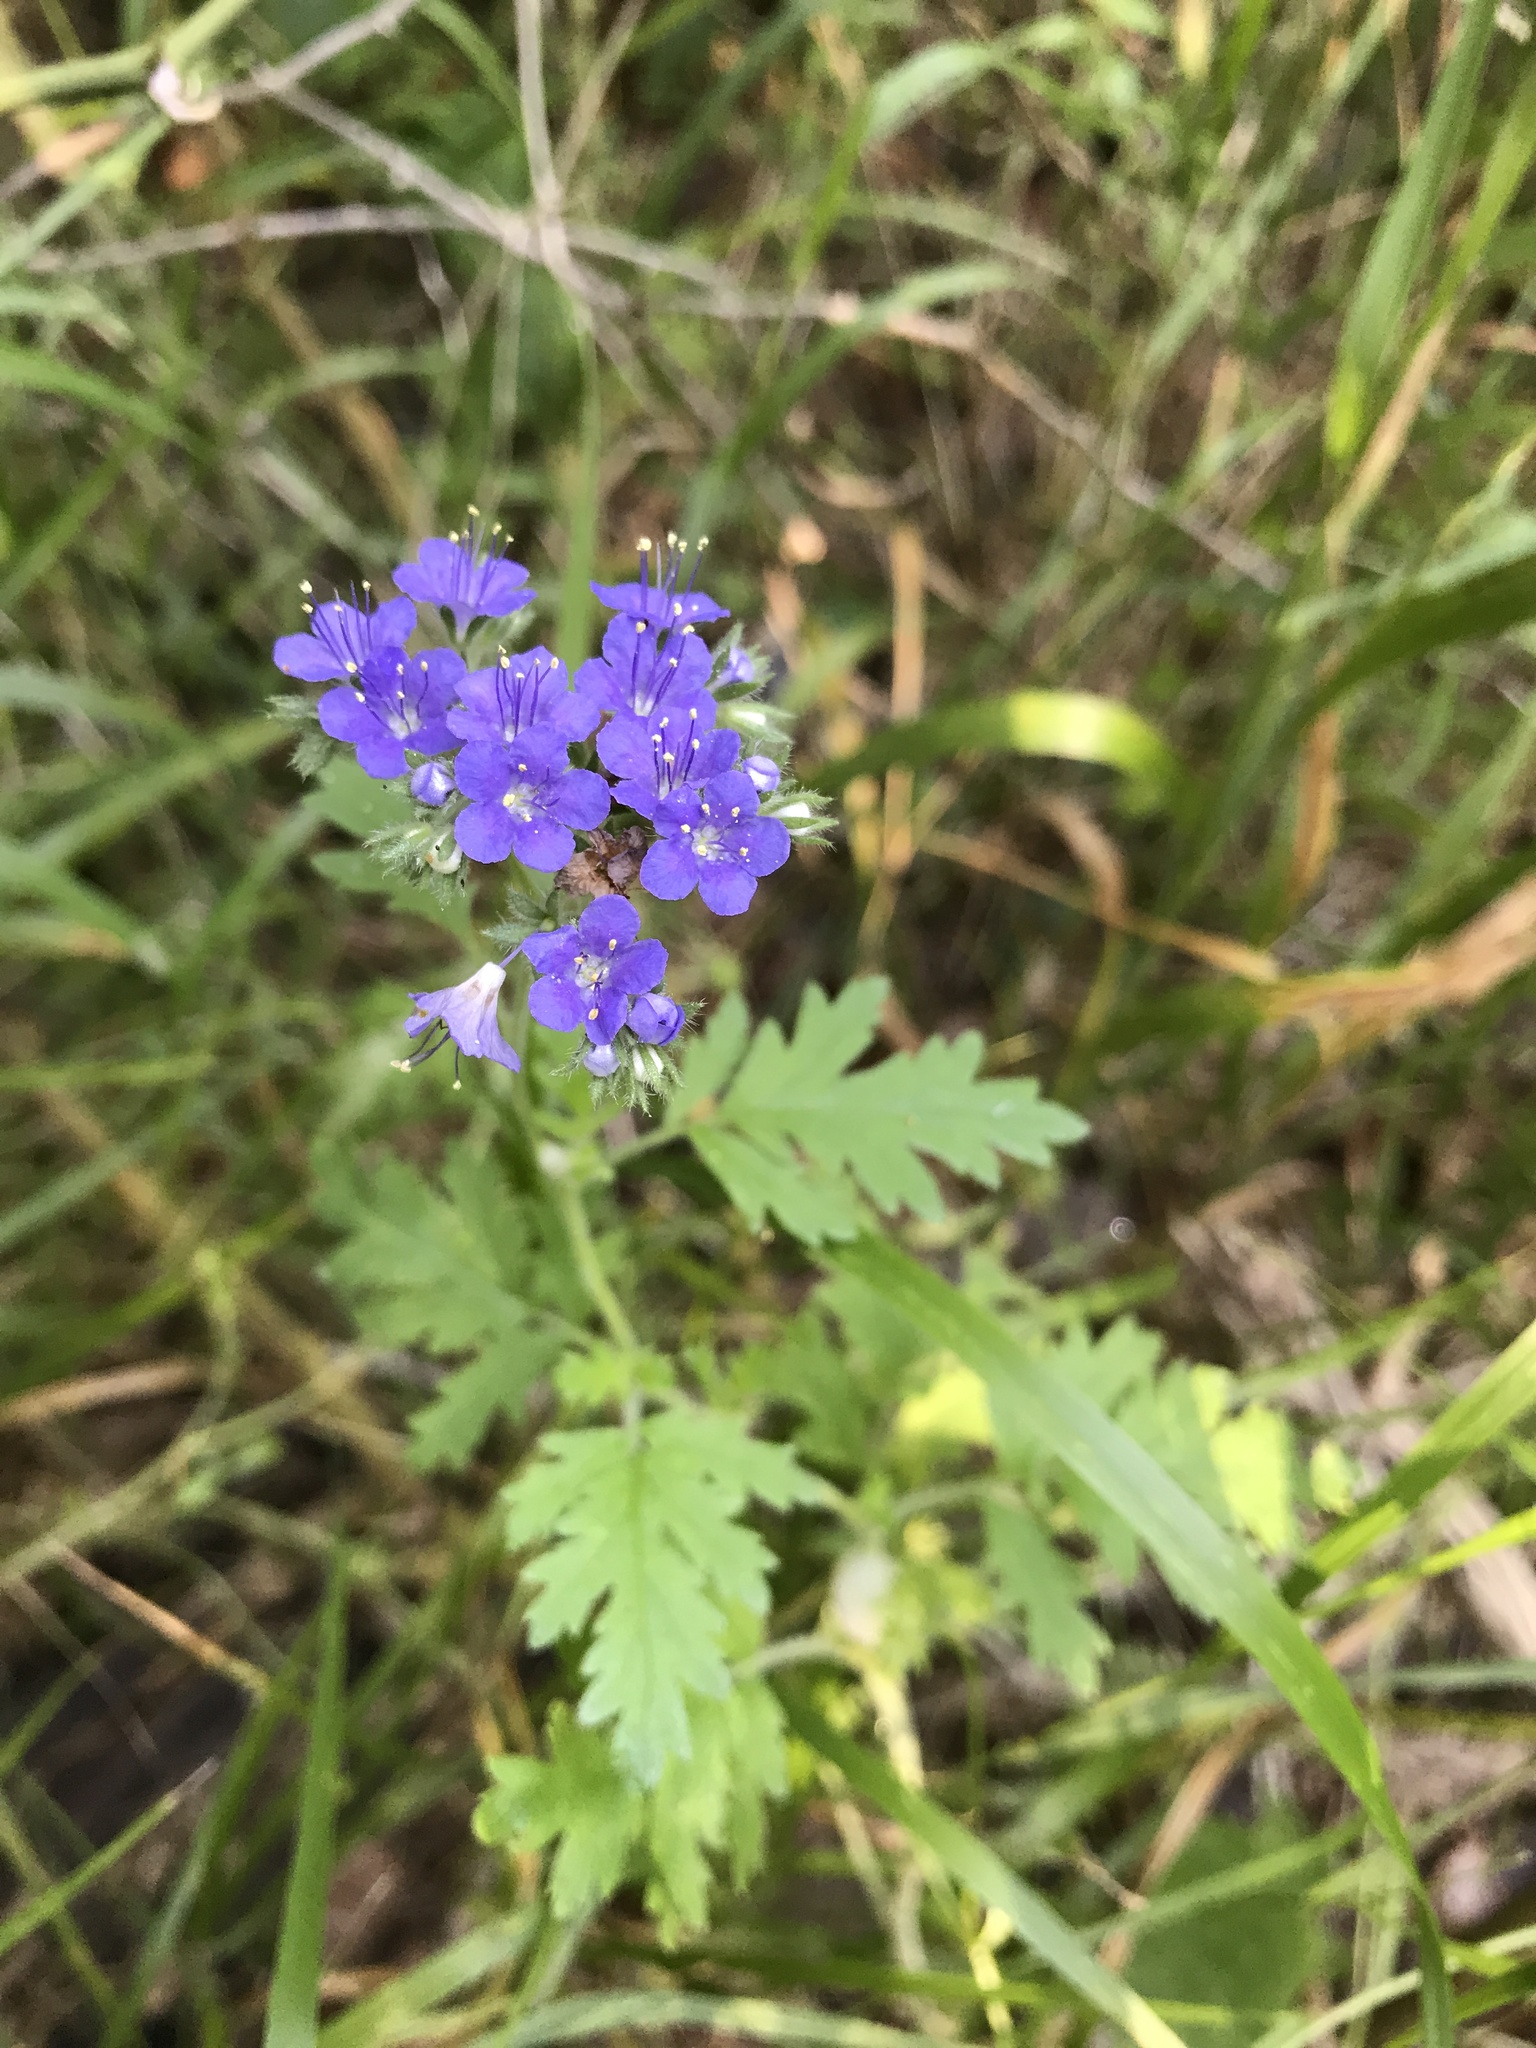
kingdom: Plantae
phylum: Tracheophyta
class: Magnoliopsida
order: Boraginales
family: Hydrophyllaceae
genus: Phacelia
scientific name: Phacelia congesta
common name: Blue curls
